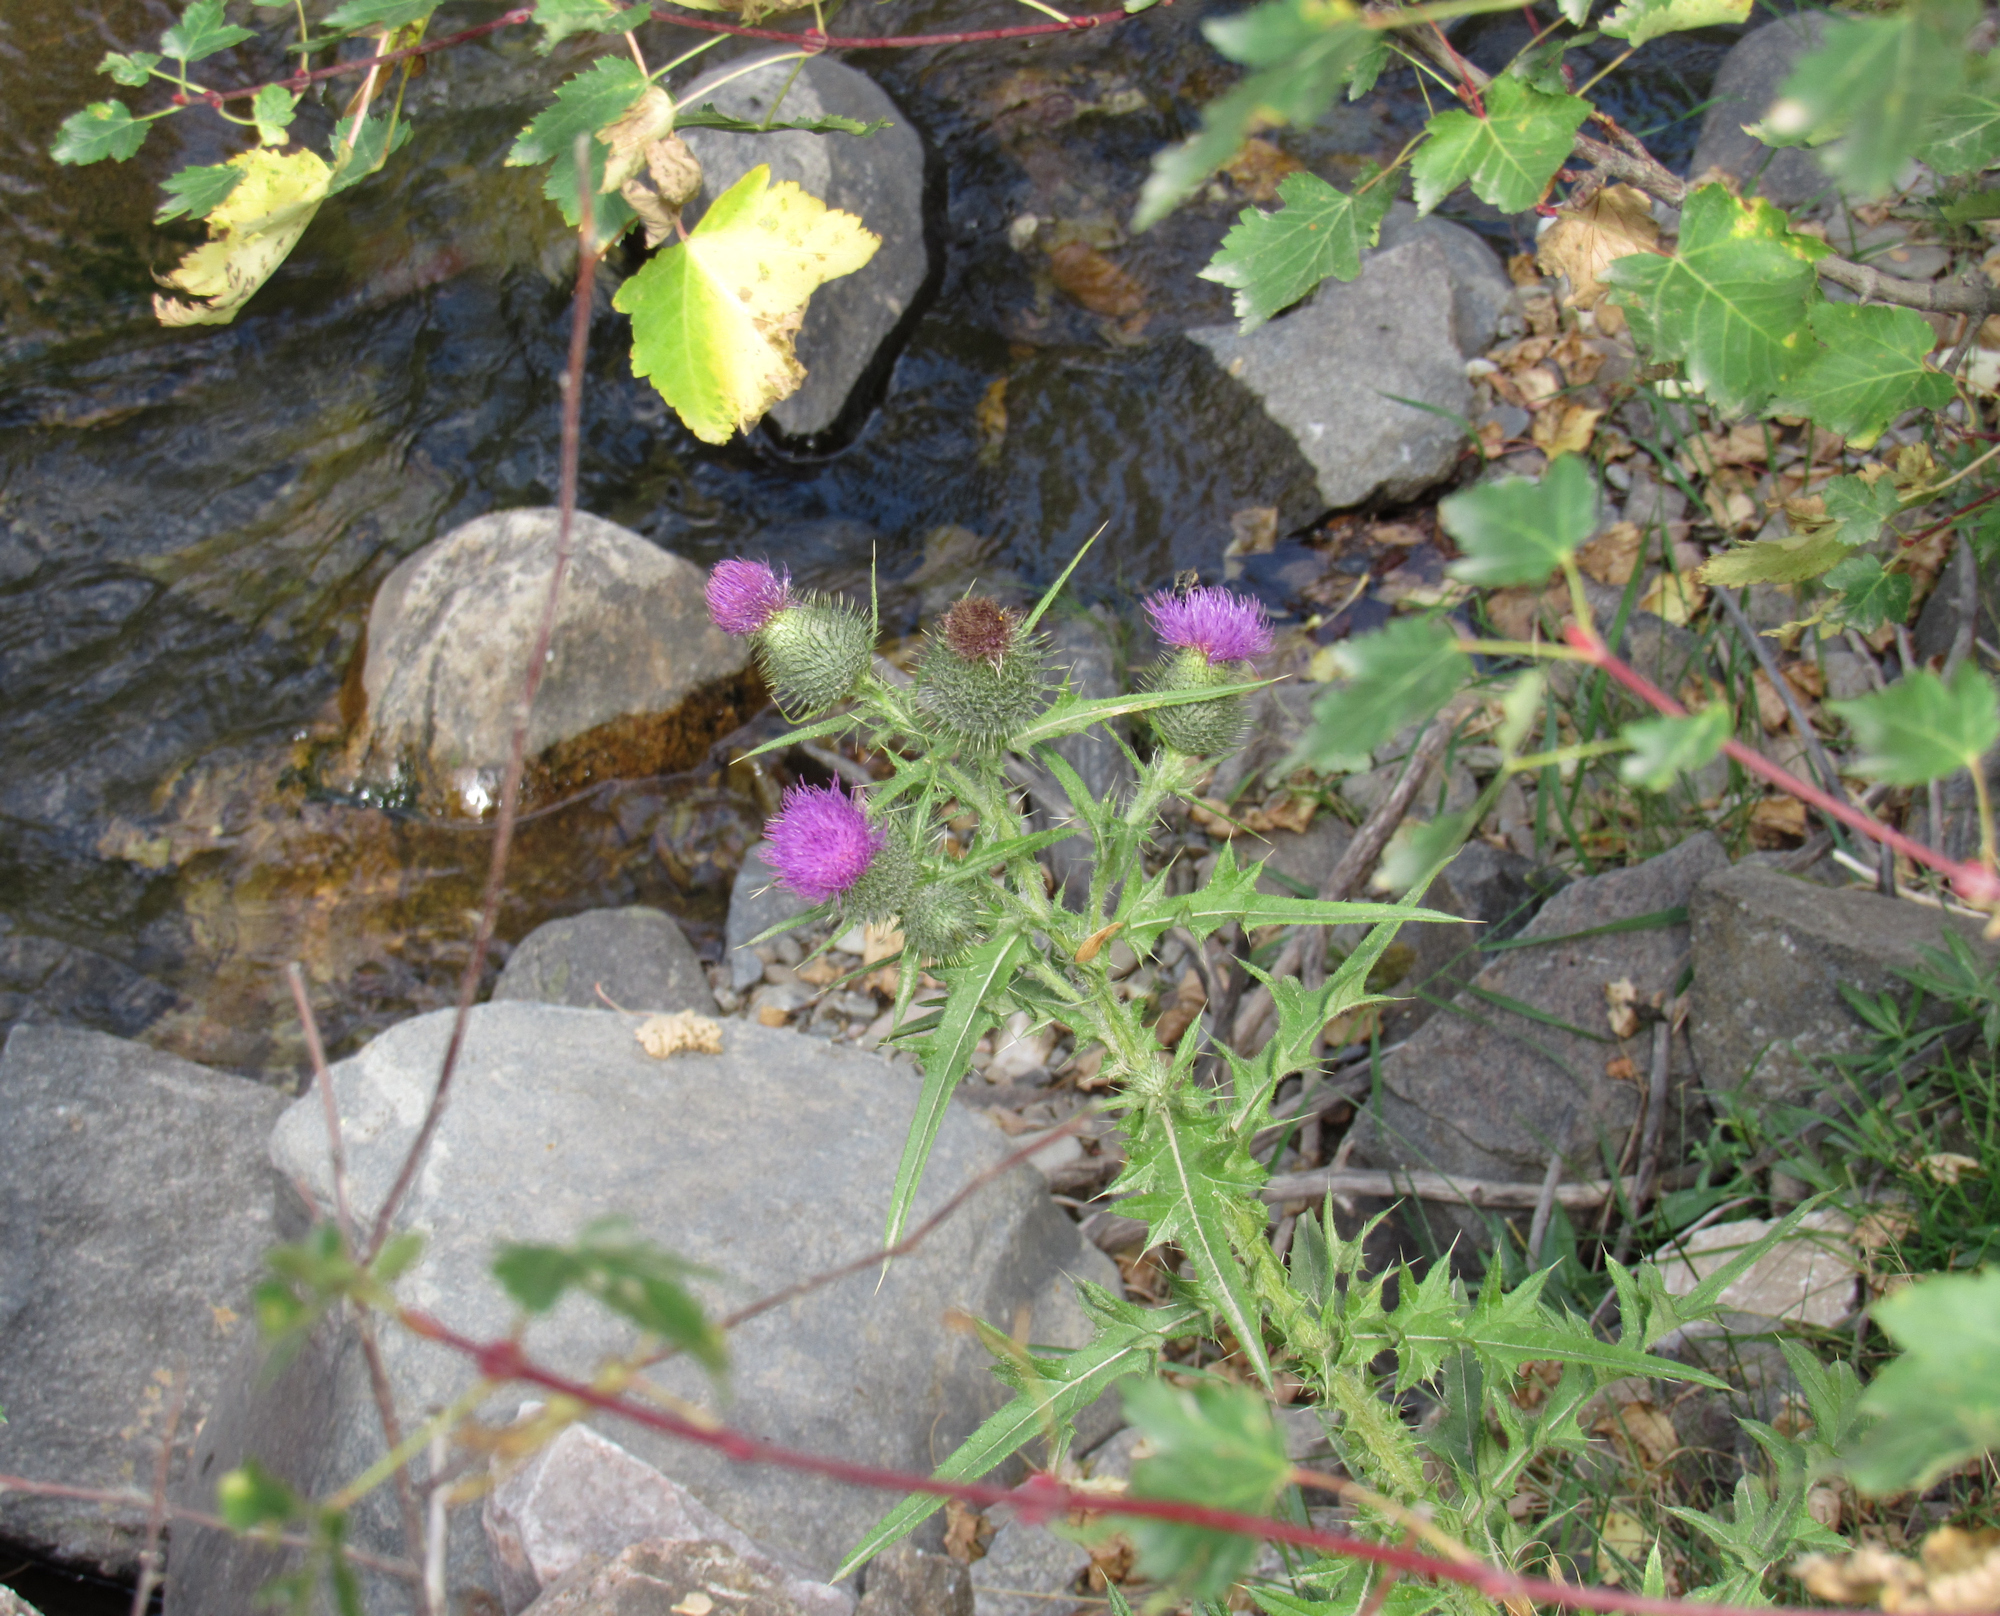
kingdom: Plantae
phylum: Tracheophyta
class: Magnoliopsida
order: Sapindales
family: Sapindaceae
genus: Acer
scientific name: Acer glabrum
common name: Rocky mountain maple
